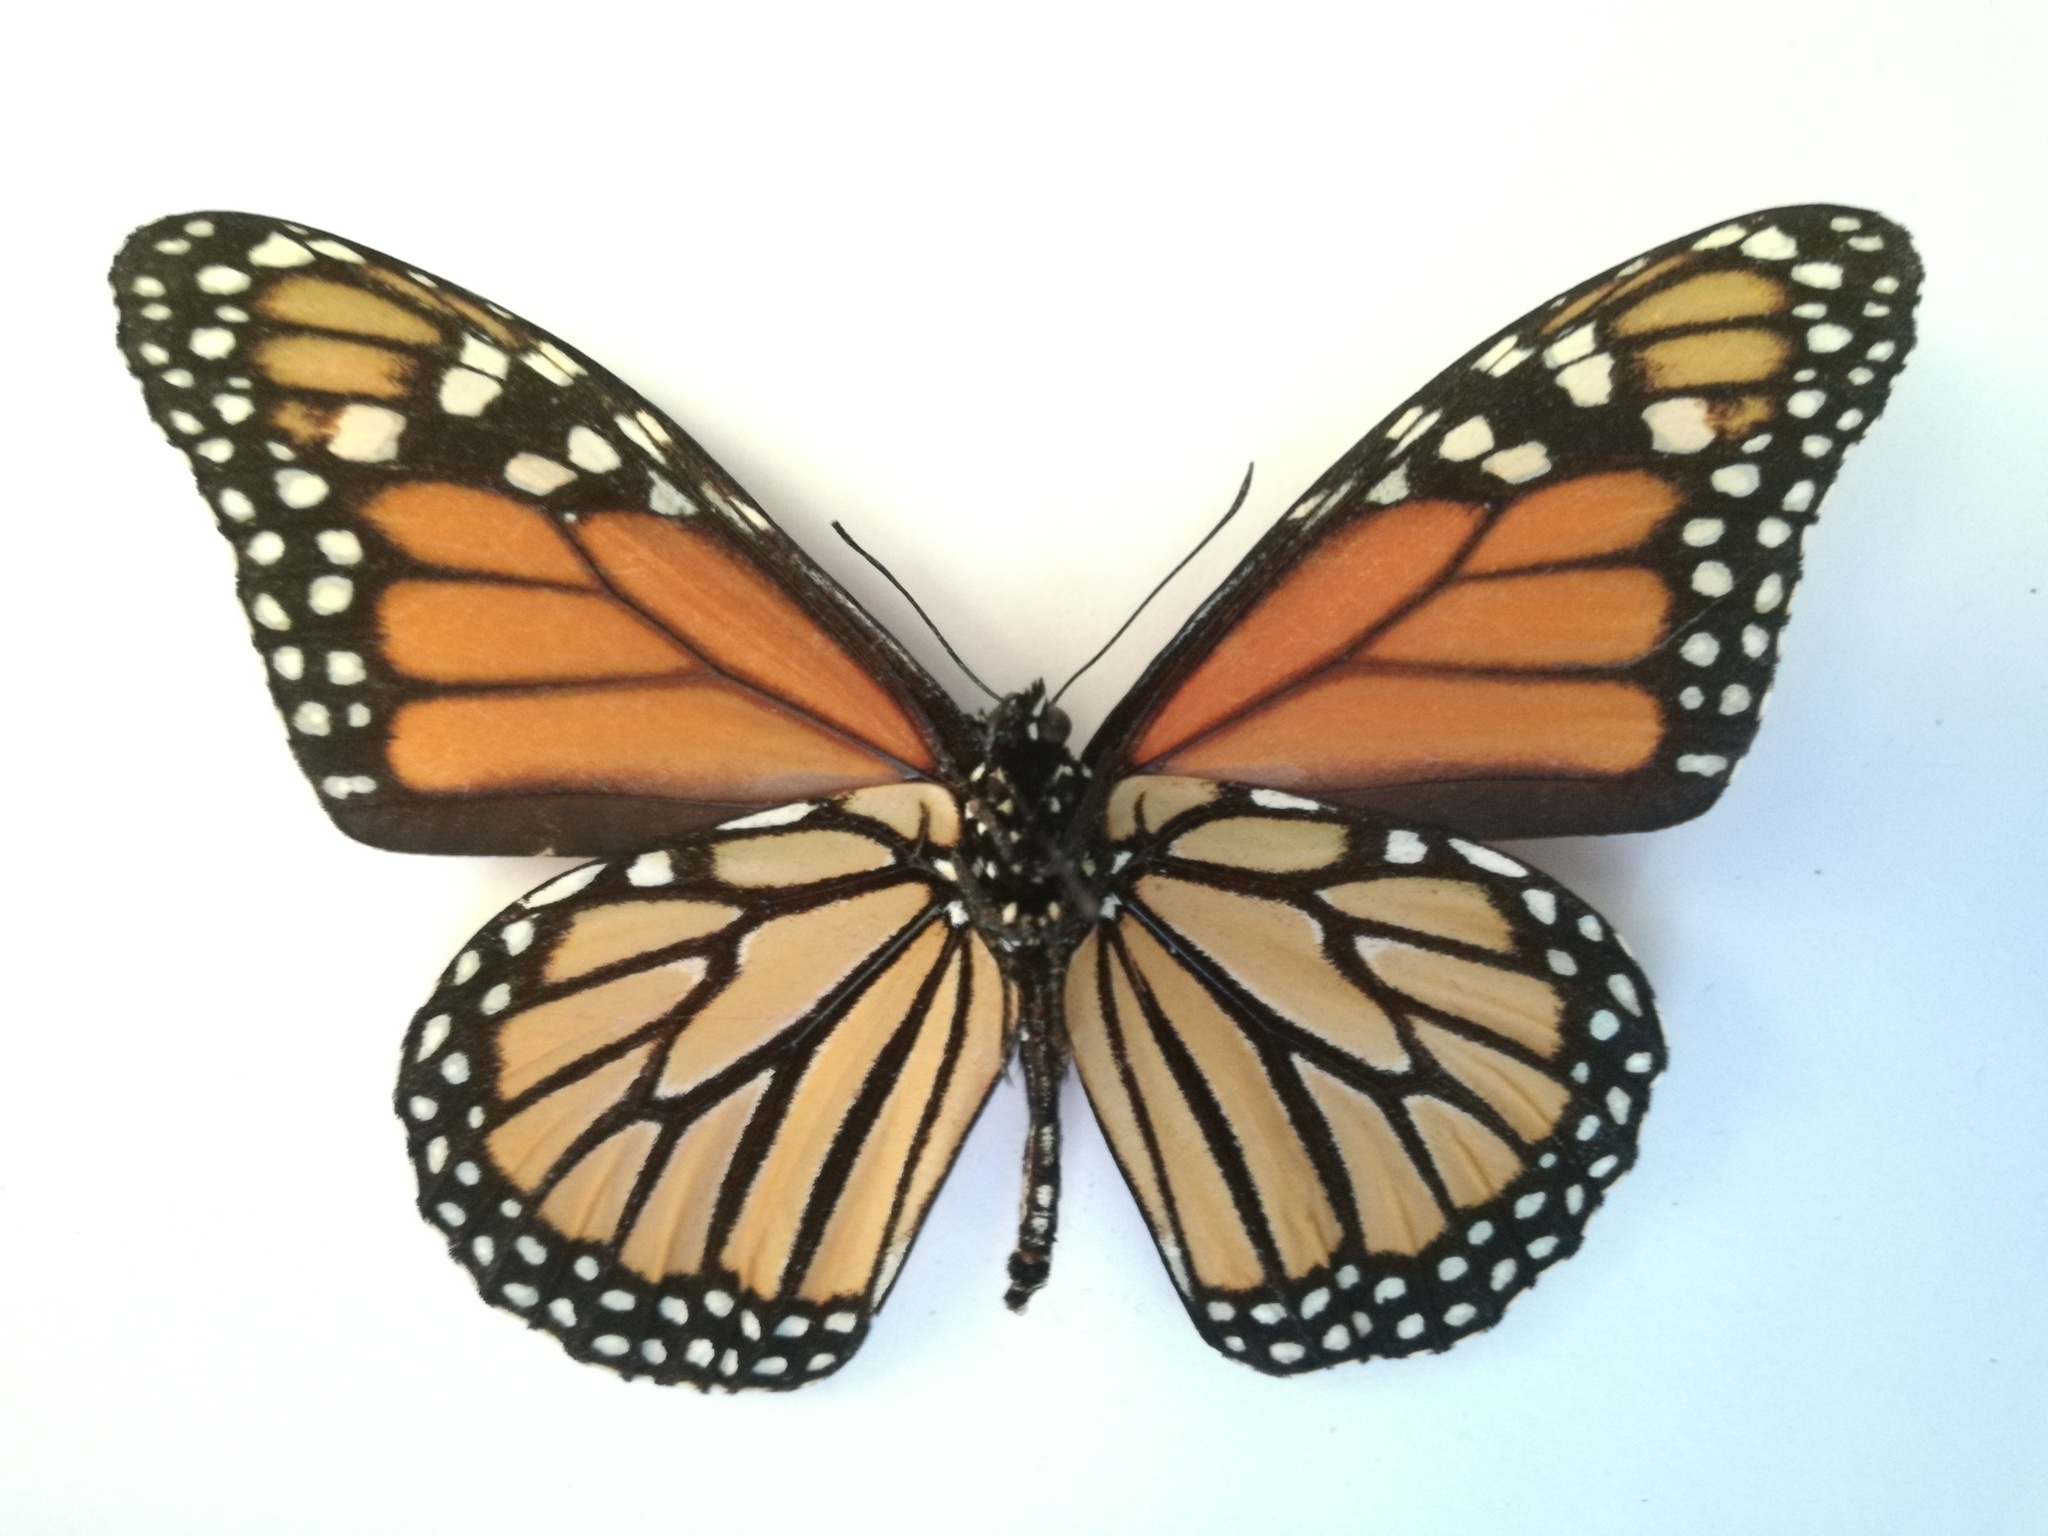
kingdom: Animalia
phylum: Arthropoda
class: Insecta
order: Lepidoptera
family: Nymphalidae
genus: Danaus
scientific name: Danaus plexippus
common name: Monarch
